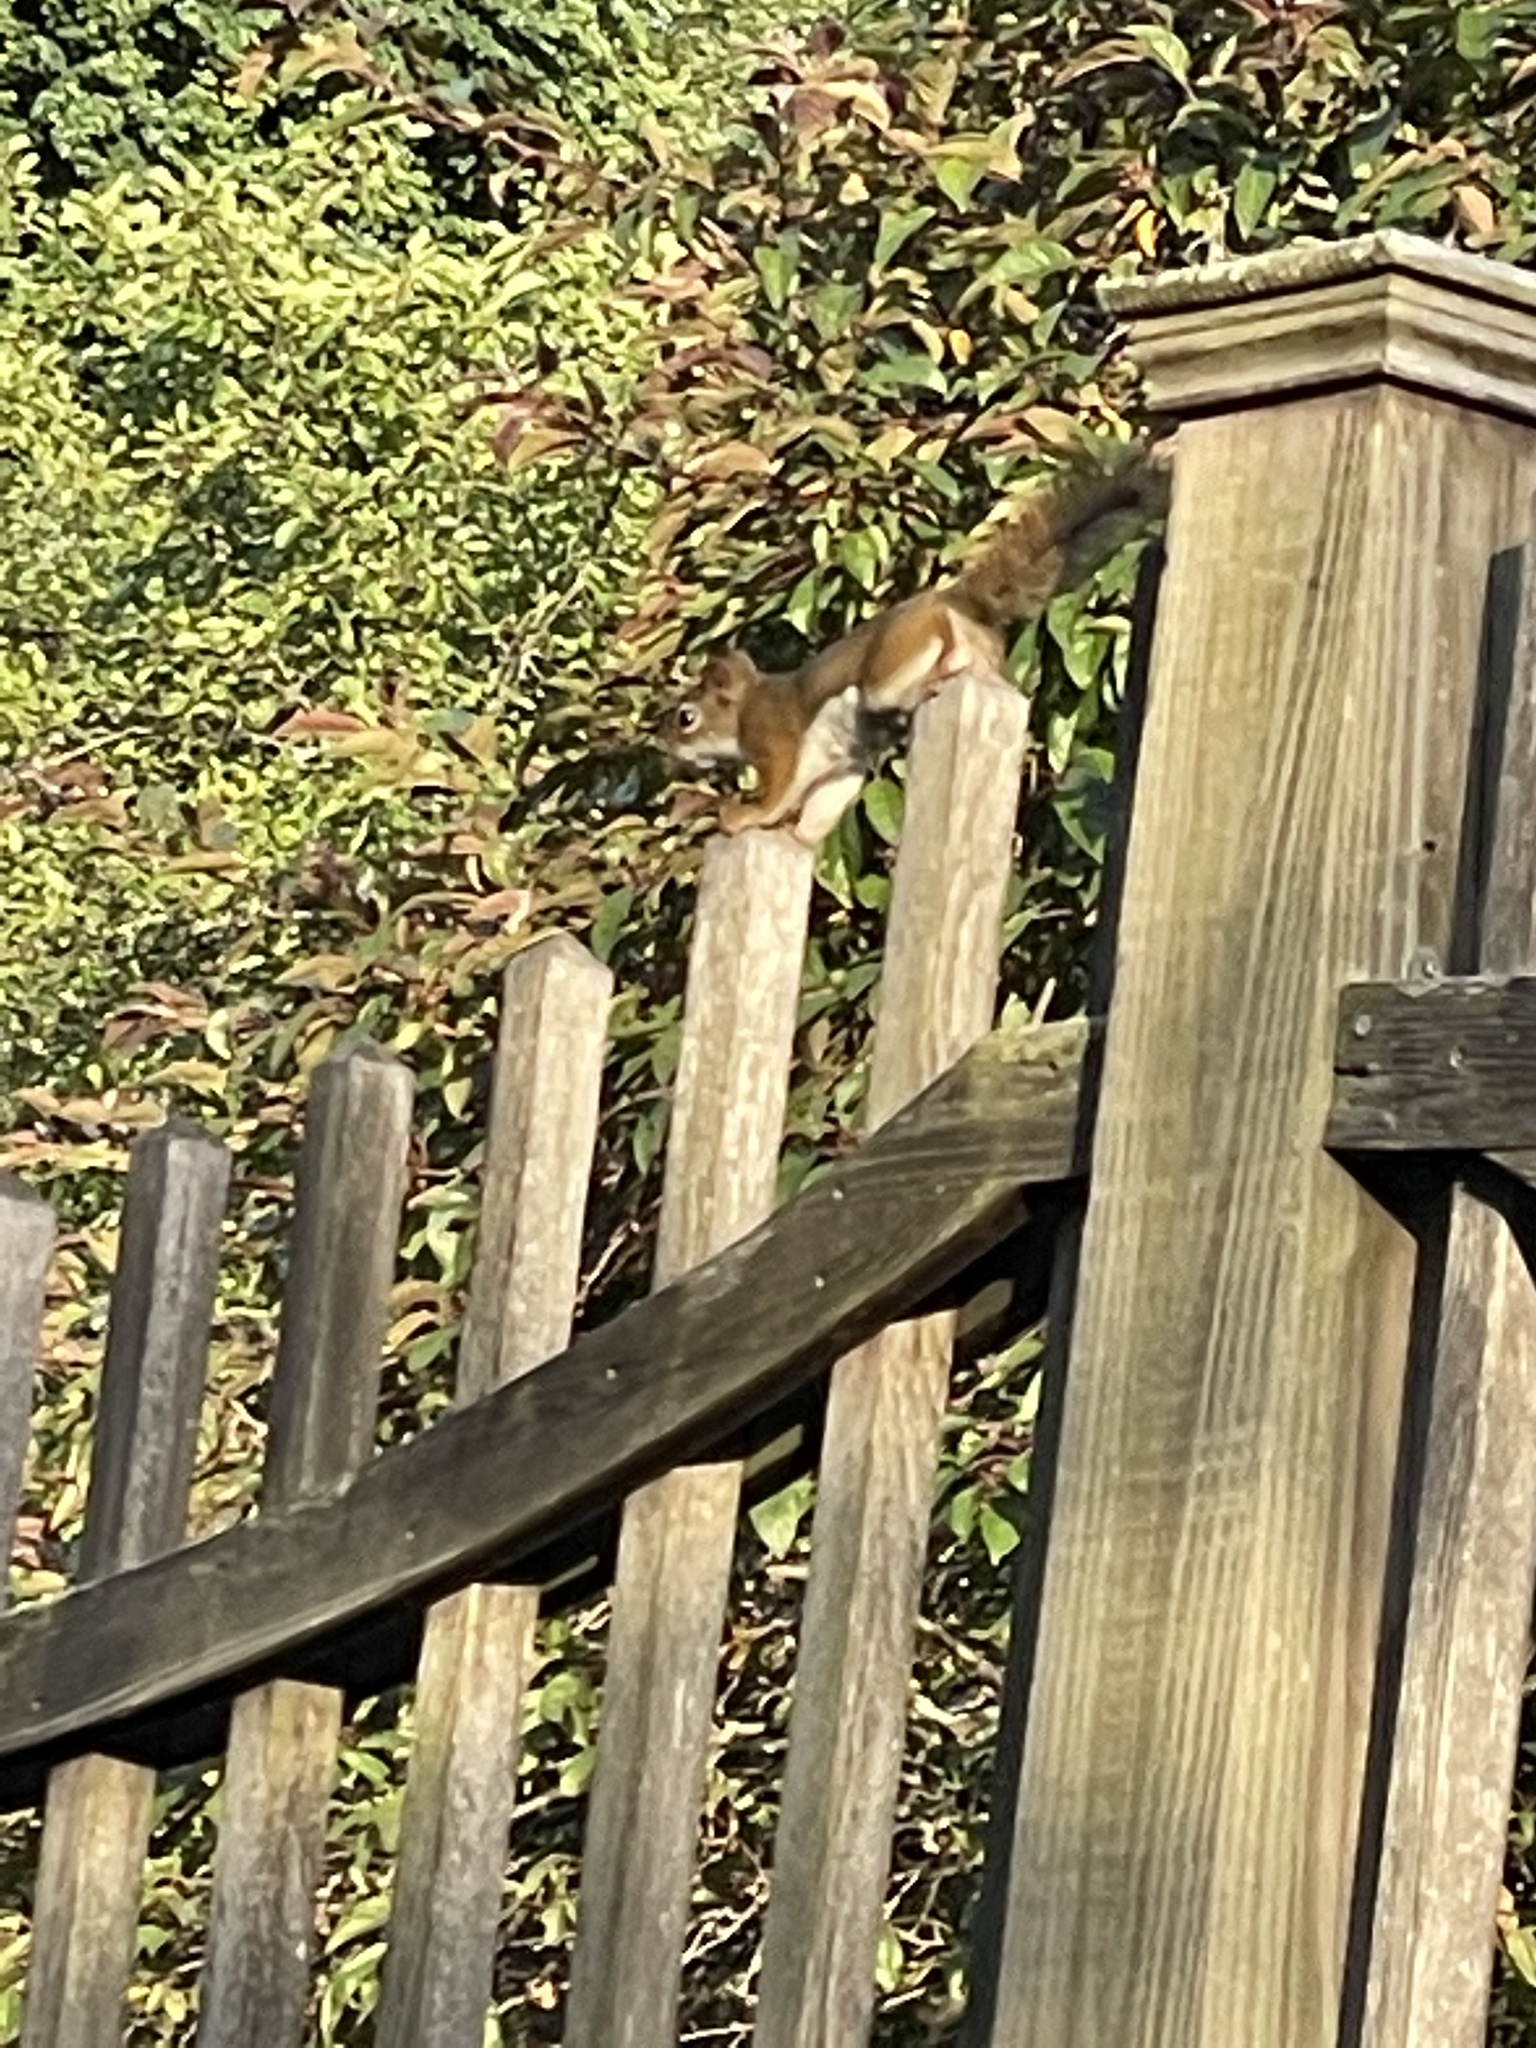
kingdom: Animalia
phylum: Chordata
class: Mammalia
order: Rodentia
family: Sciuridae
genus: Tamiasciurus
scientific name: Tamiasciurus hudsonicus
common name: Red squirrel
